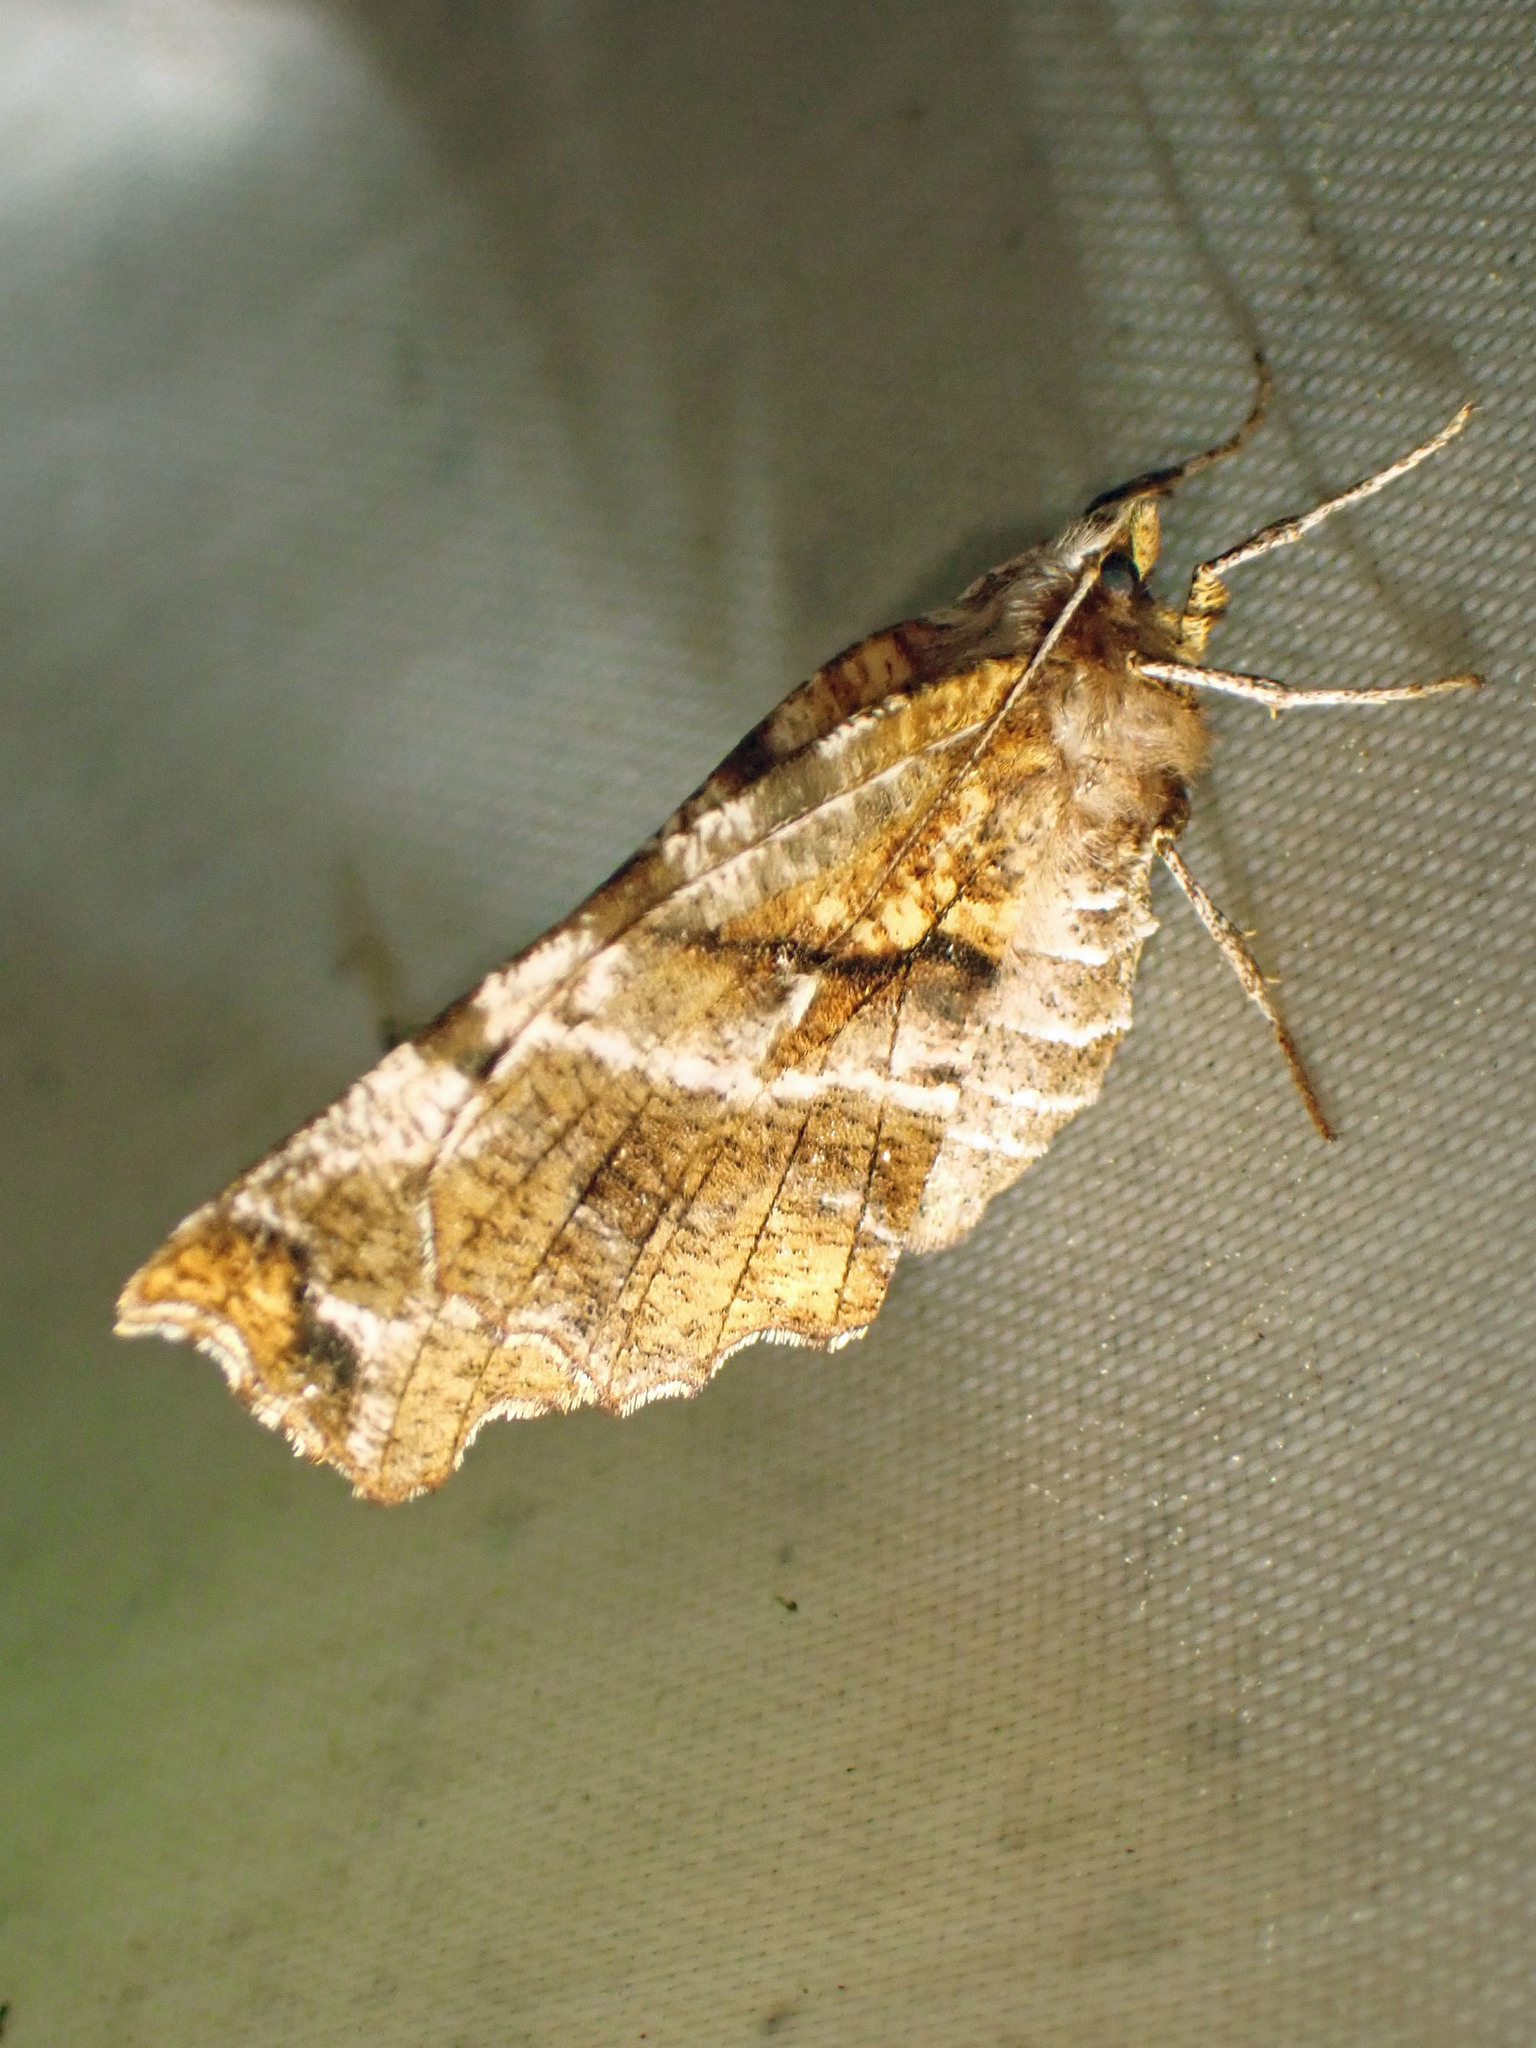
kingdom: Animalia
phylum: Arthropoda
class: Insecta
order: Lepidoptera
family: Geometridae
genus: Selenia
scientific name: Selenia alciphearia
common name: Brown-tipped thorn
